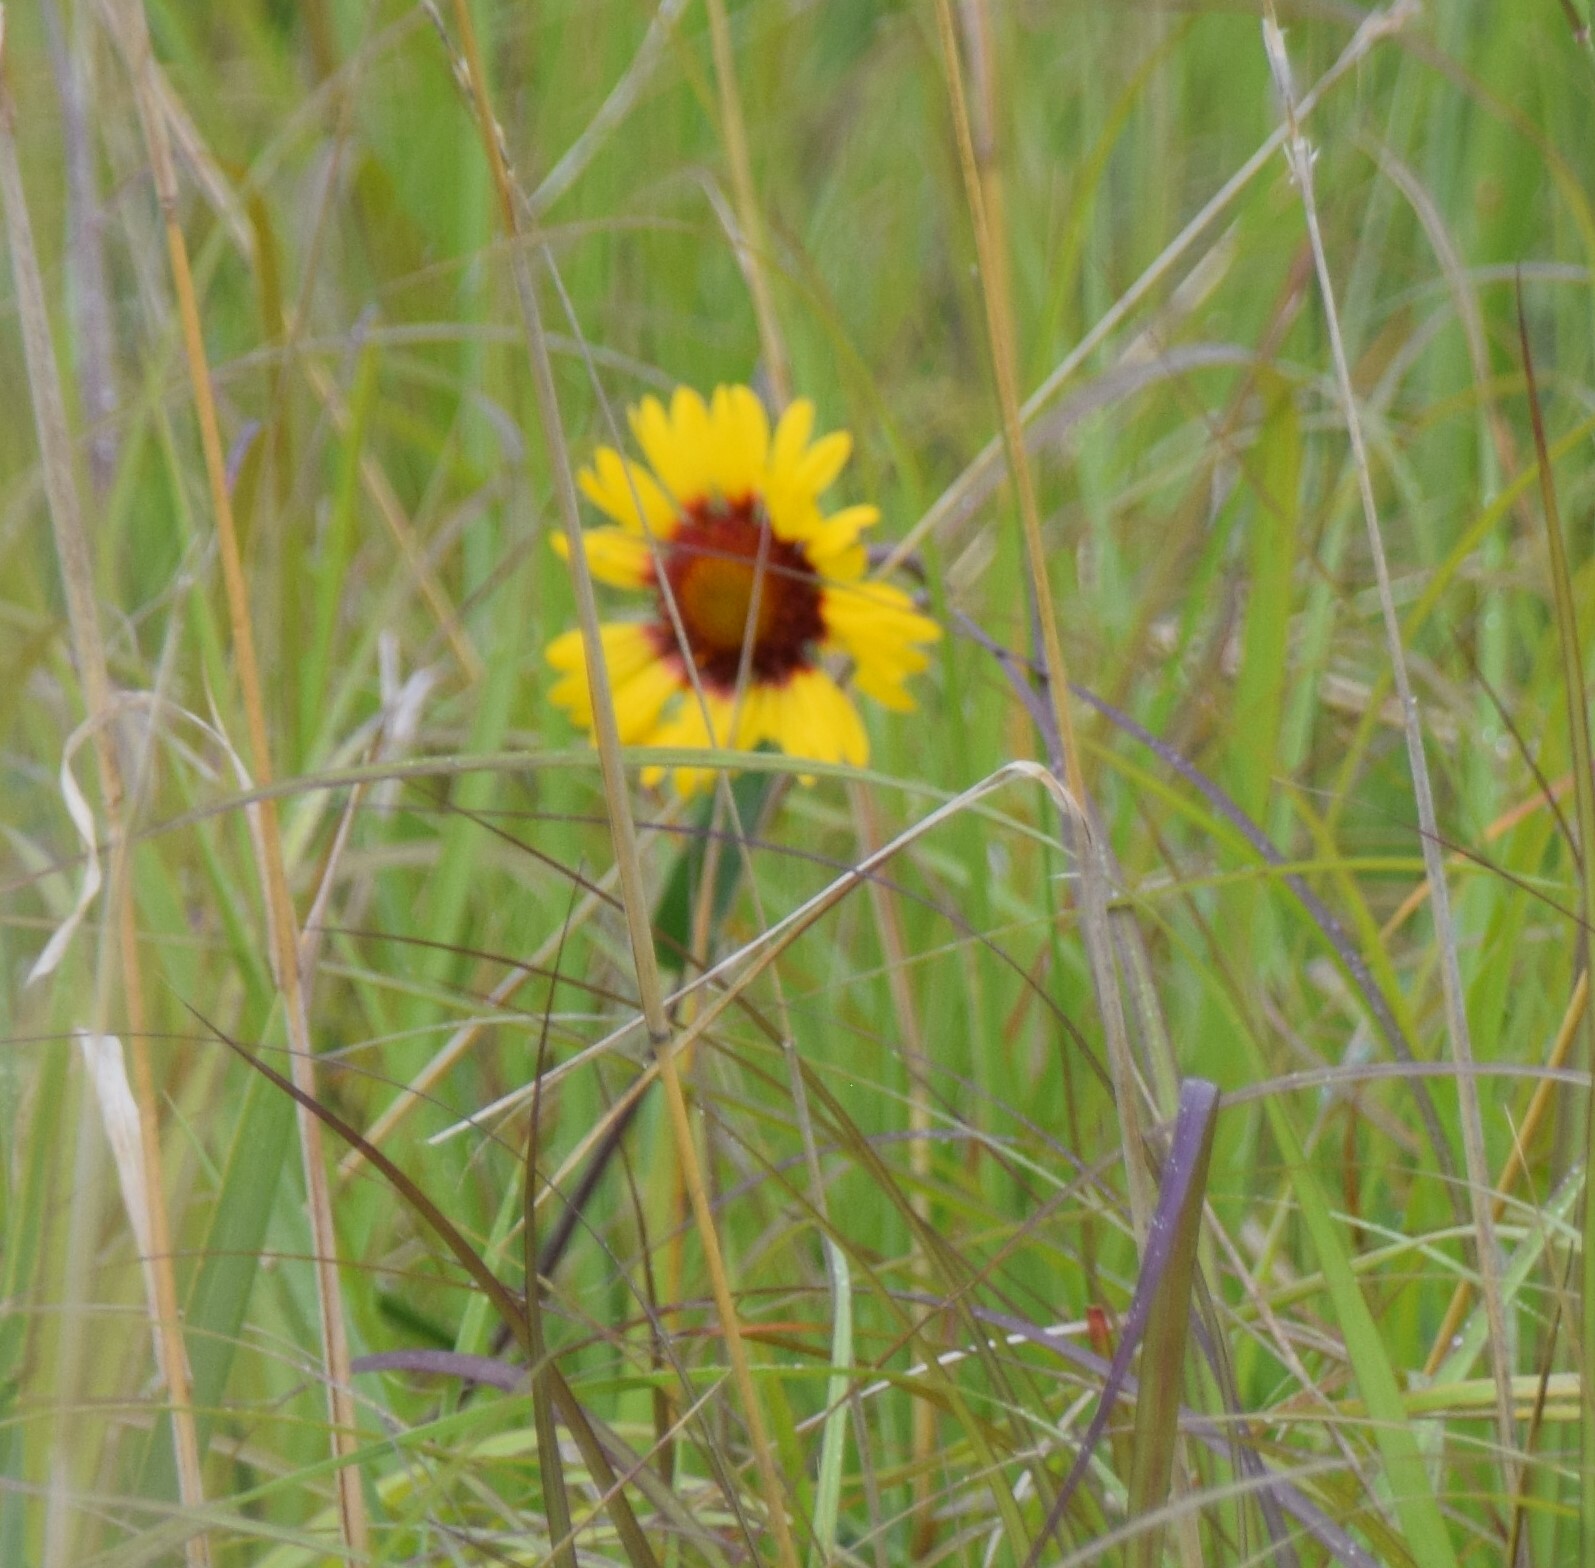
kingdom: Plantae
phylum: Tracheophyta
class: Magnoliopsida
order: Asterales
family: Asteraceae
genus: Gaillardia
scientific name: Gaillardia aristata
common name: Blanket-flower
